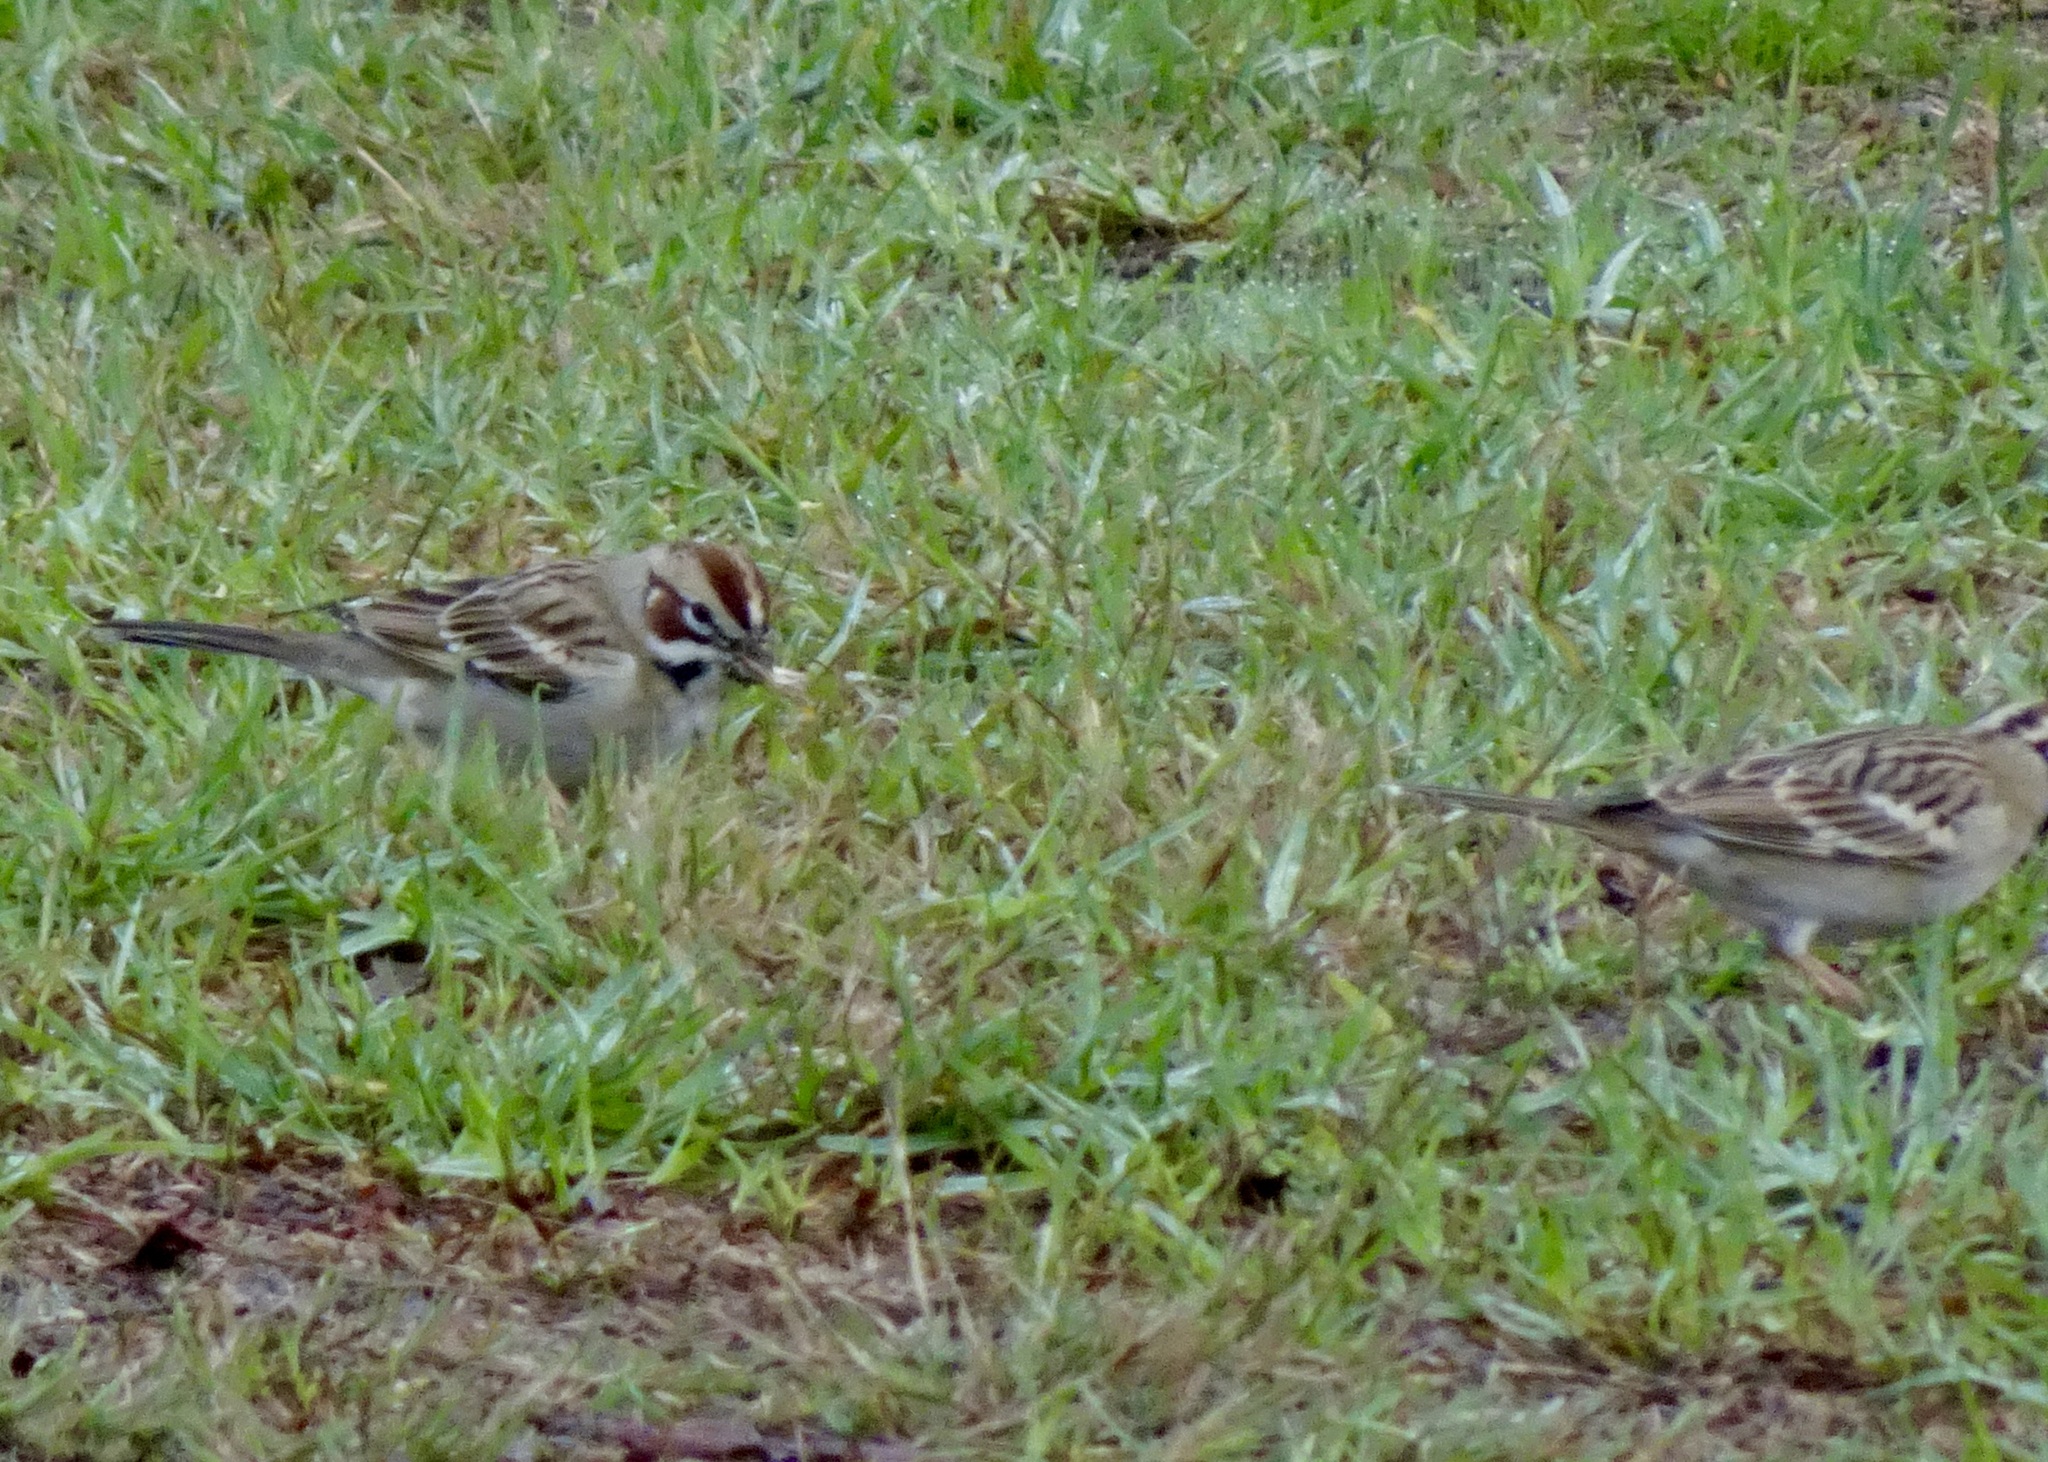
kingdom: Animalia
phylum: Chordata
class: Aves
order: Passeriformes
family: Passerellidae
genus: Chondestes
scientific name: Chondestes grammacus
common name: Lark sparrow
